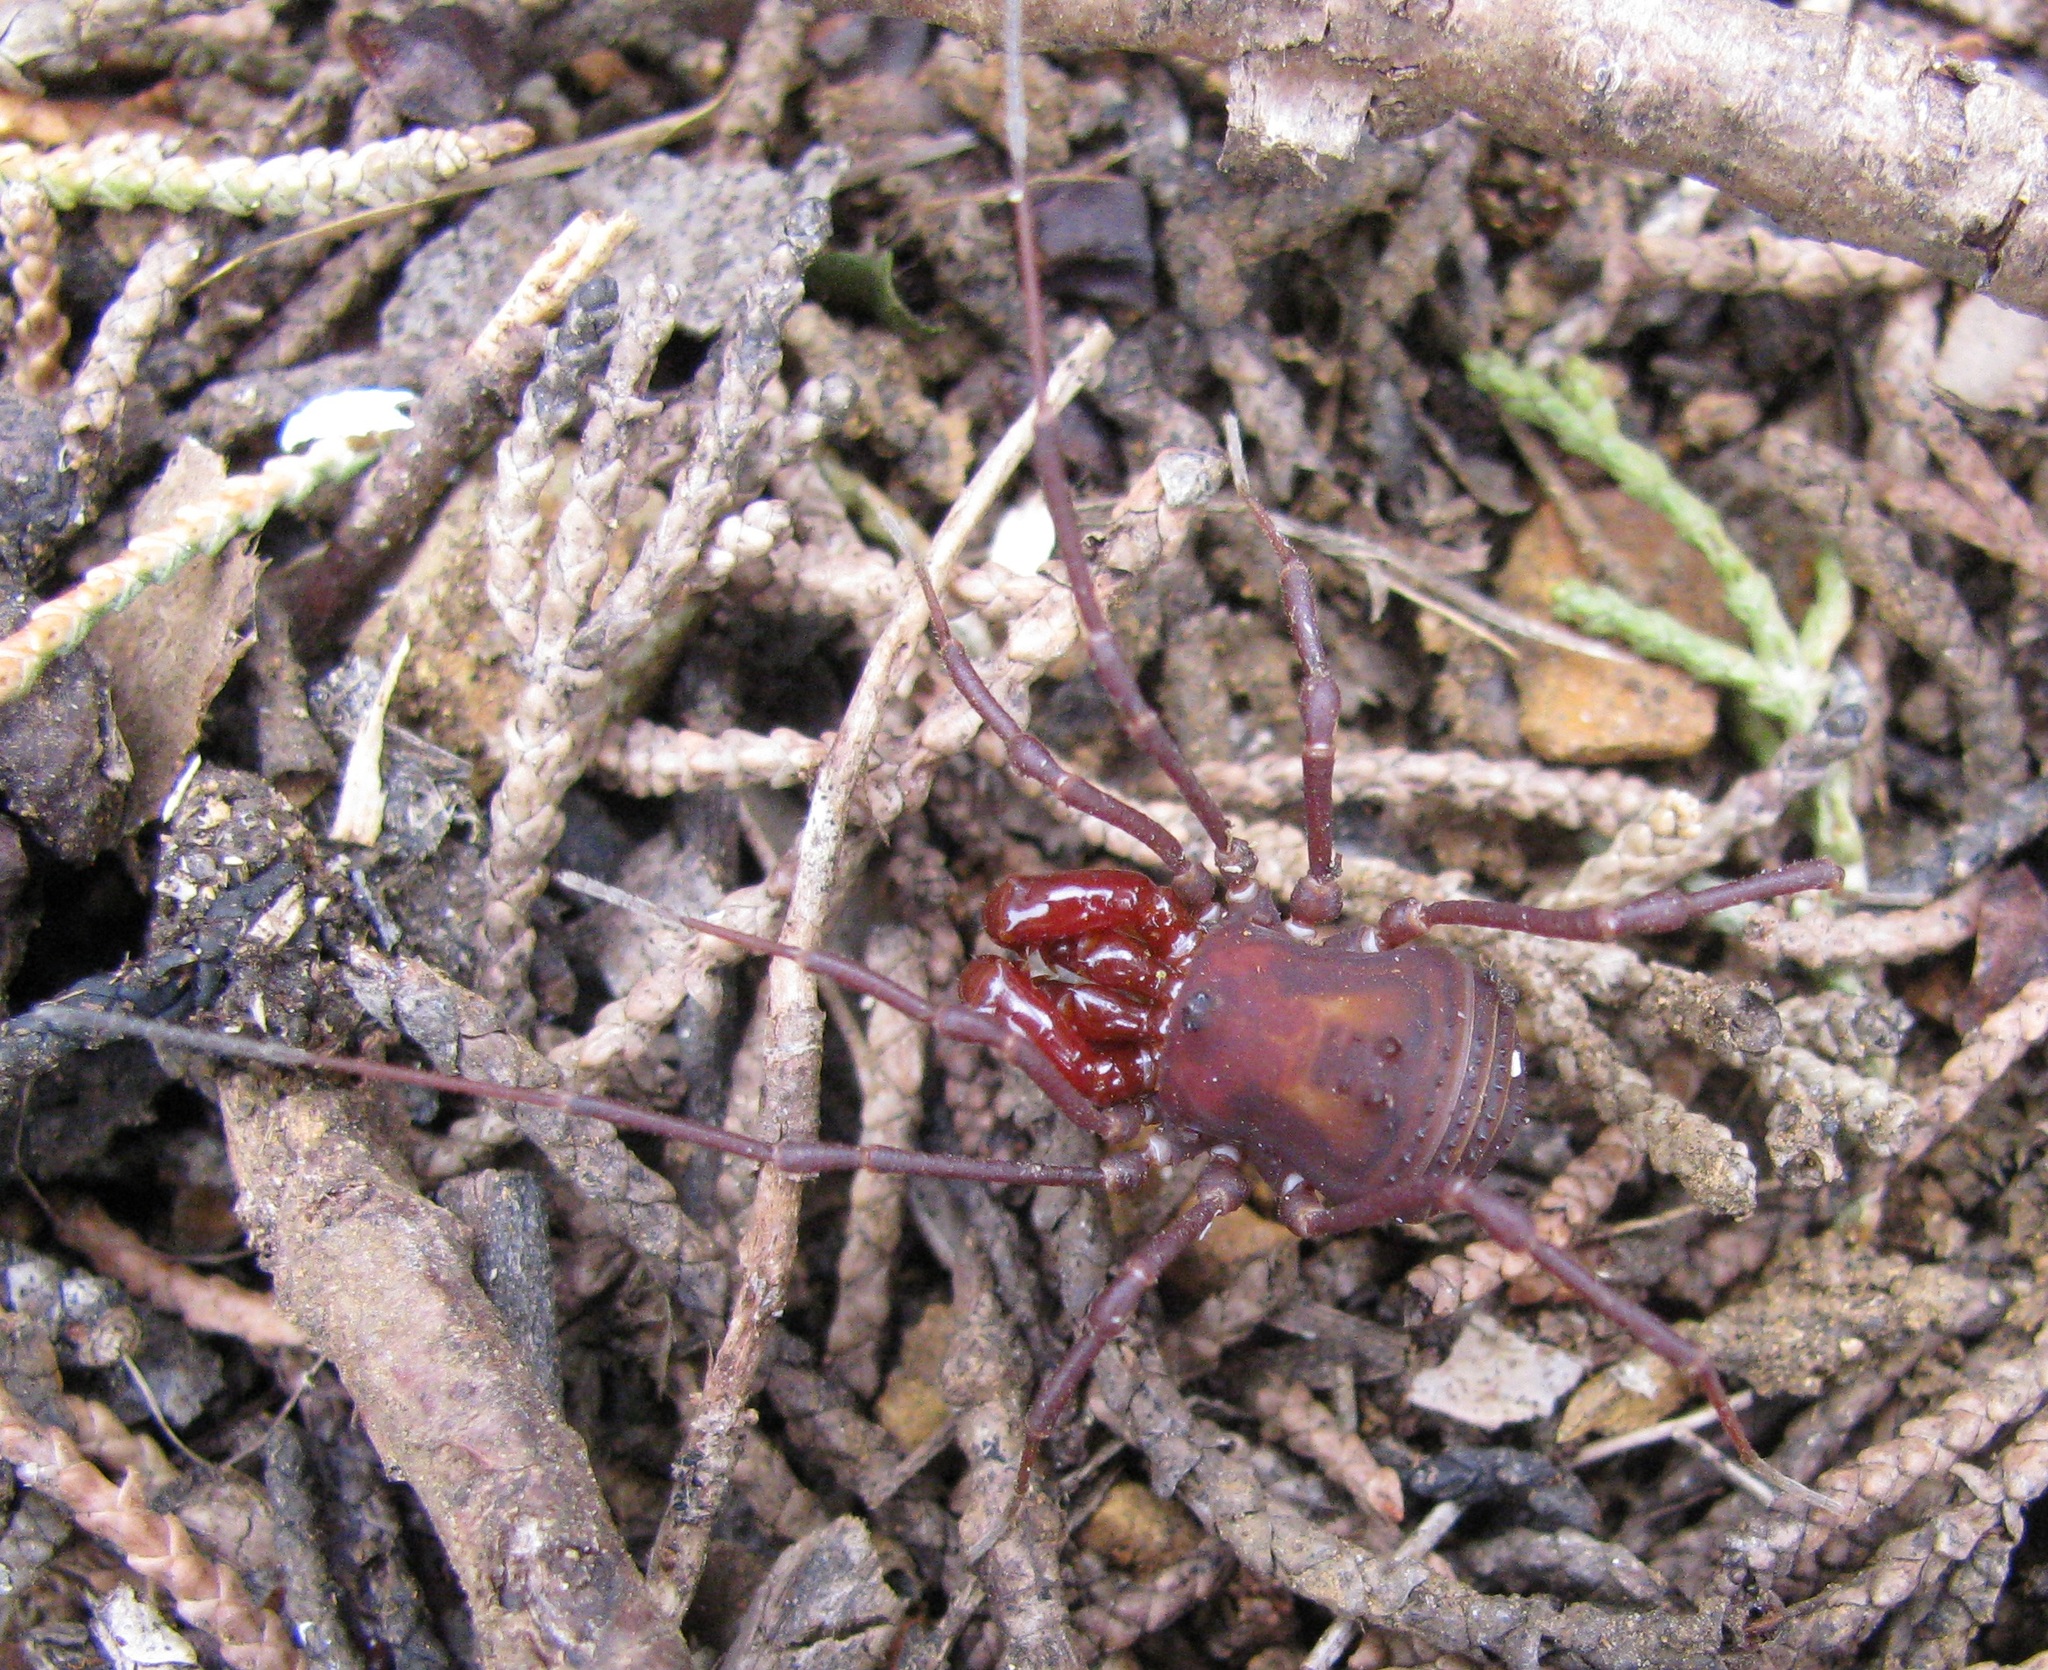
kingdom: Animalia
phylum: Arthropoda
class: Arachnida
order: Opiliones
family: Triaenonychidae
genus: Paranuncia
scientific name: Paranuncia gigantea
